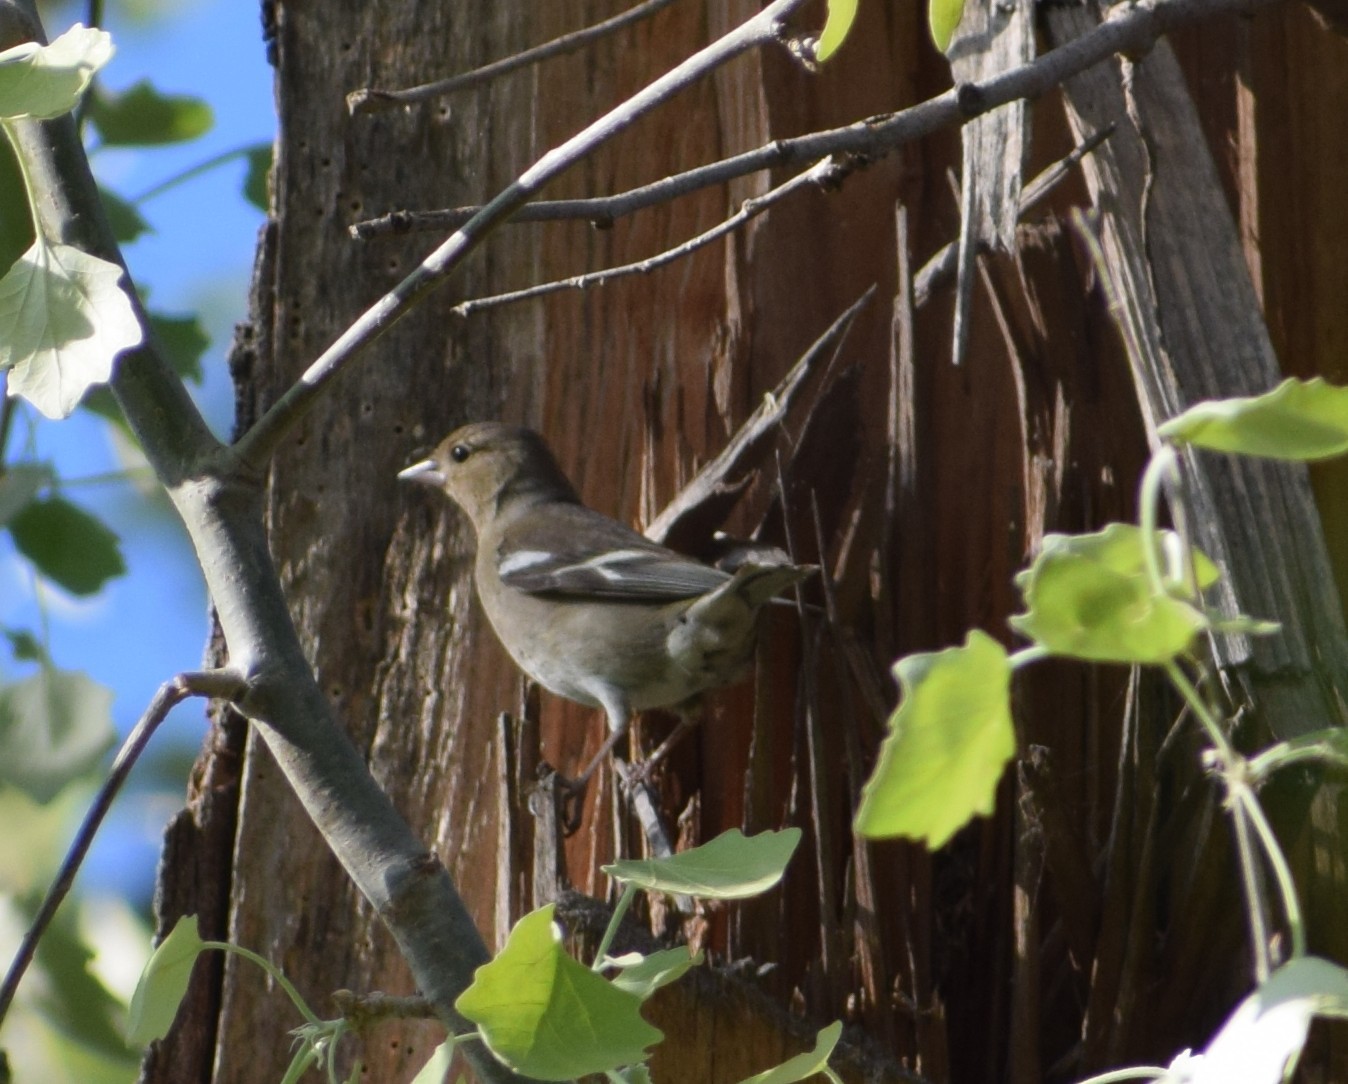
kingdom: Animalia
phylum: Chordata
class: Aves
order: Passeriformes
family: Fringillidae
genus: Fringilla
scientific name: Fringilla coelebs
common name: Common chaffinch
